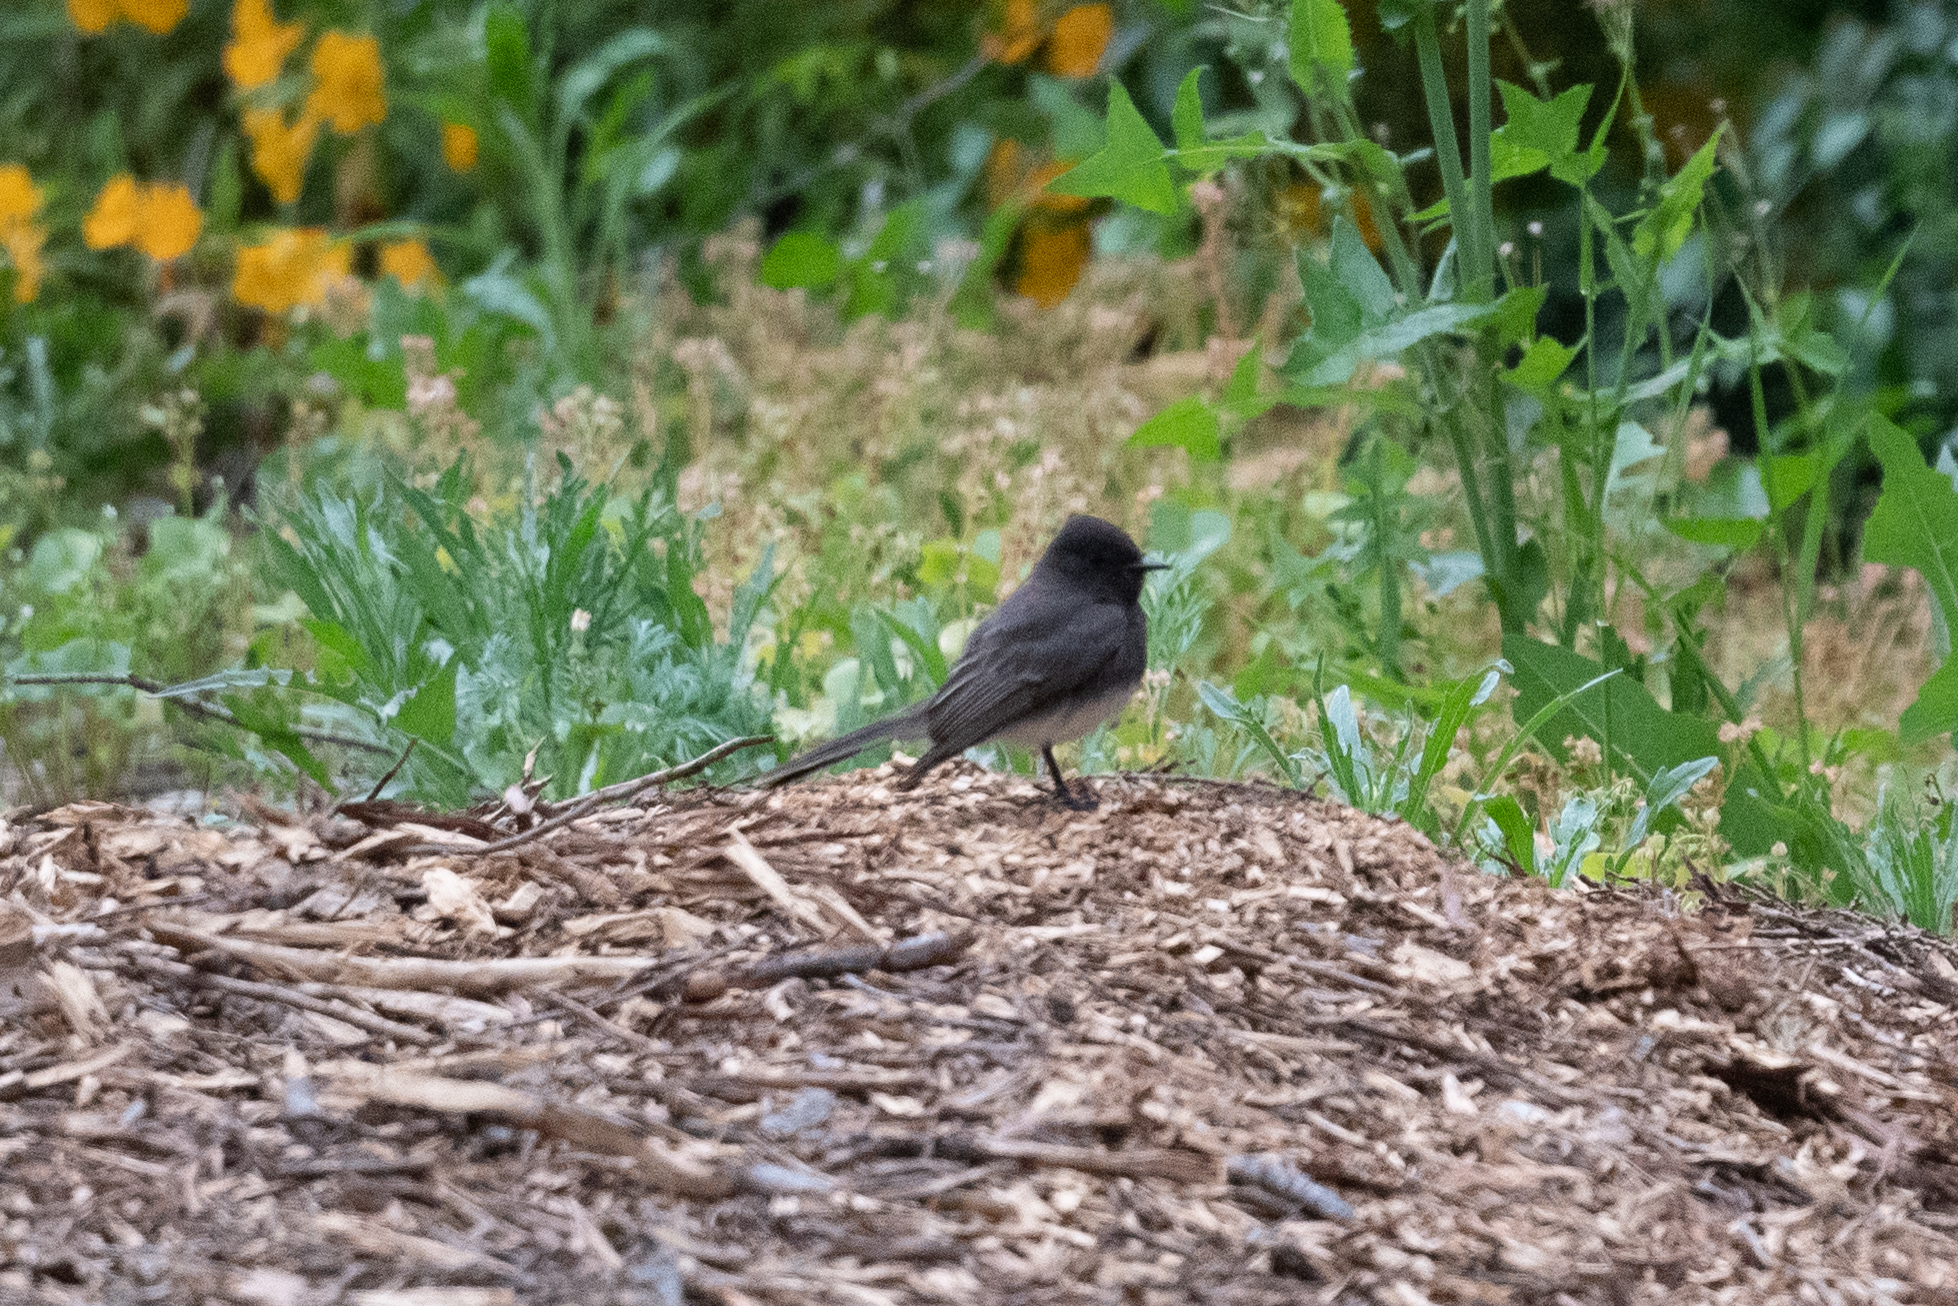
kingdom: Animalia
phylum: Chordata
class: Aves
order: Passeriformes
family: Tyrannidae
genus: Sayornis
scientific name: Sayornis nigricans
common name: Black phoebe
